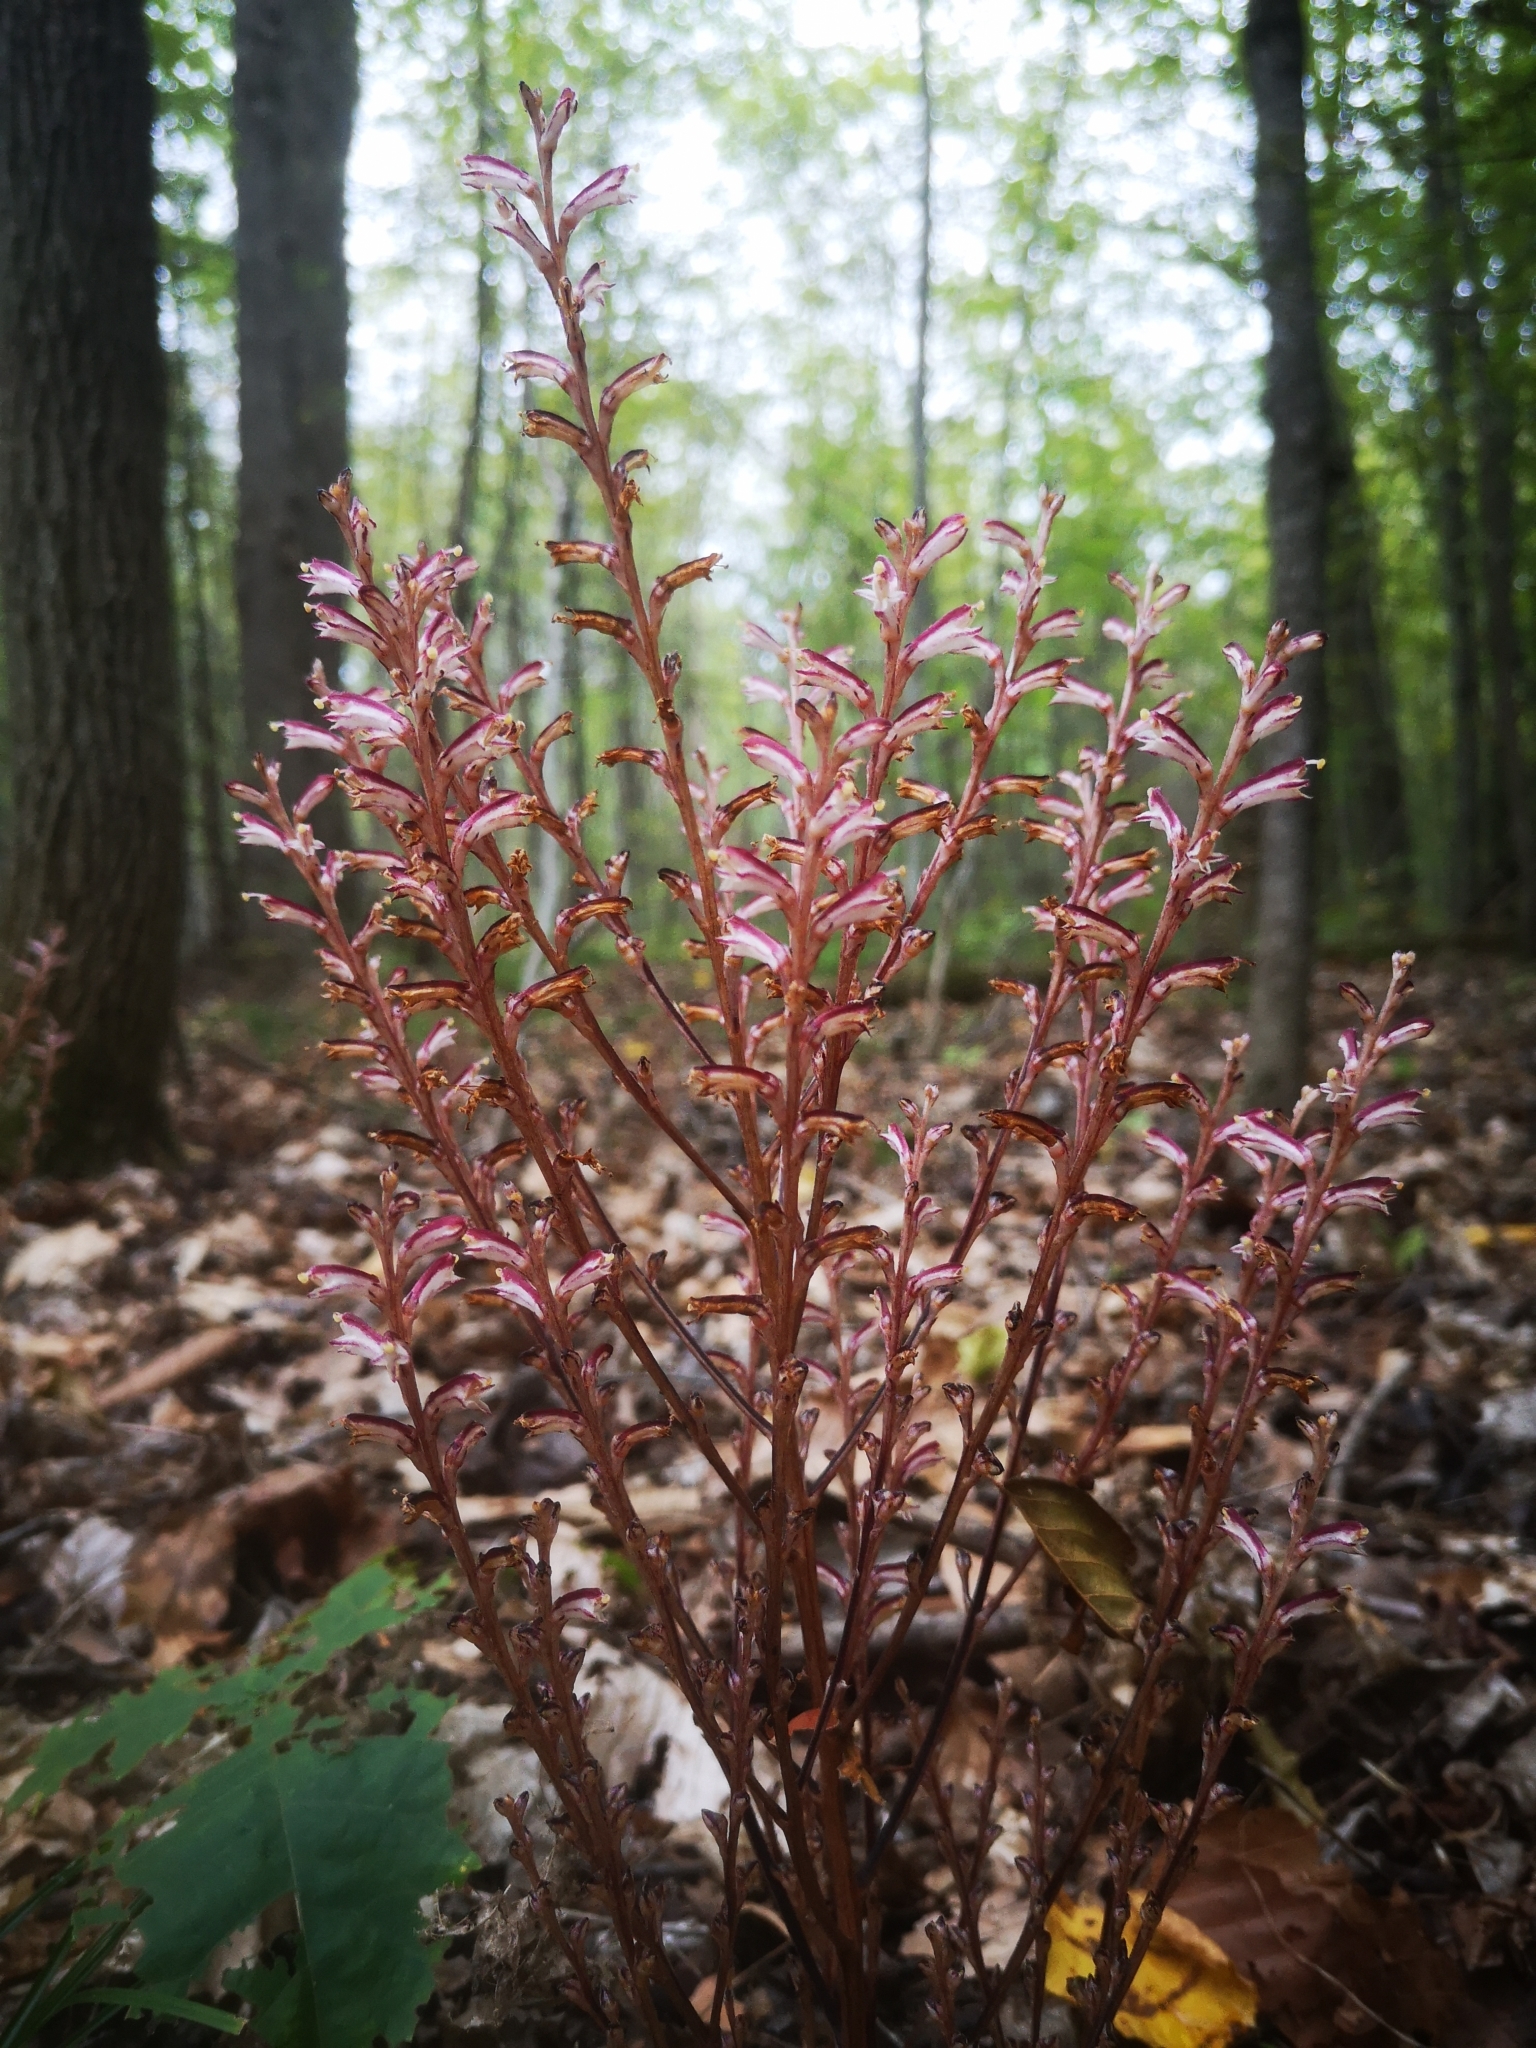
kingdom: Plantae
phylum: Tracheophyta
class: Magnoliopsida
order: Lamiales
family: Orobanchaceae
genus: Epifagus
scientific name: Epifagus virginiana
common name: Beechdrops
